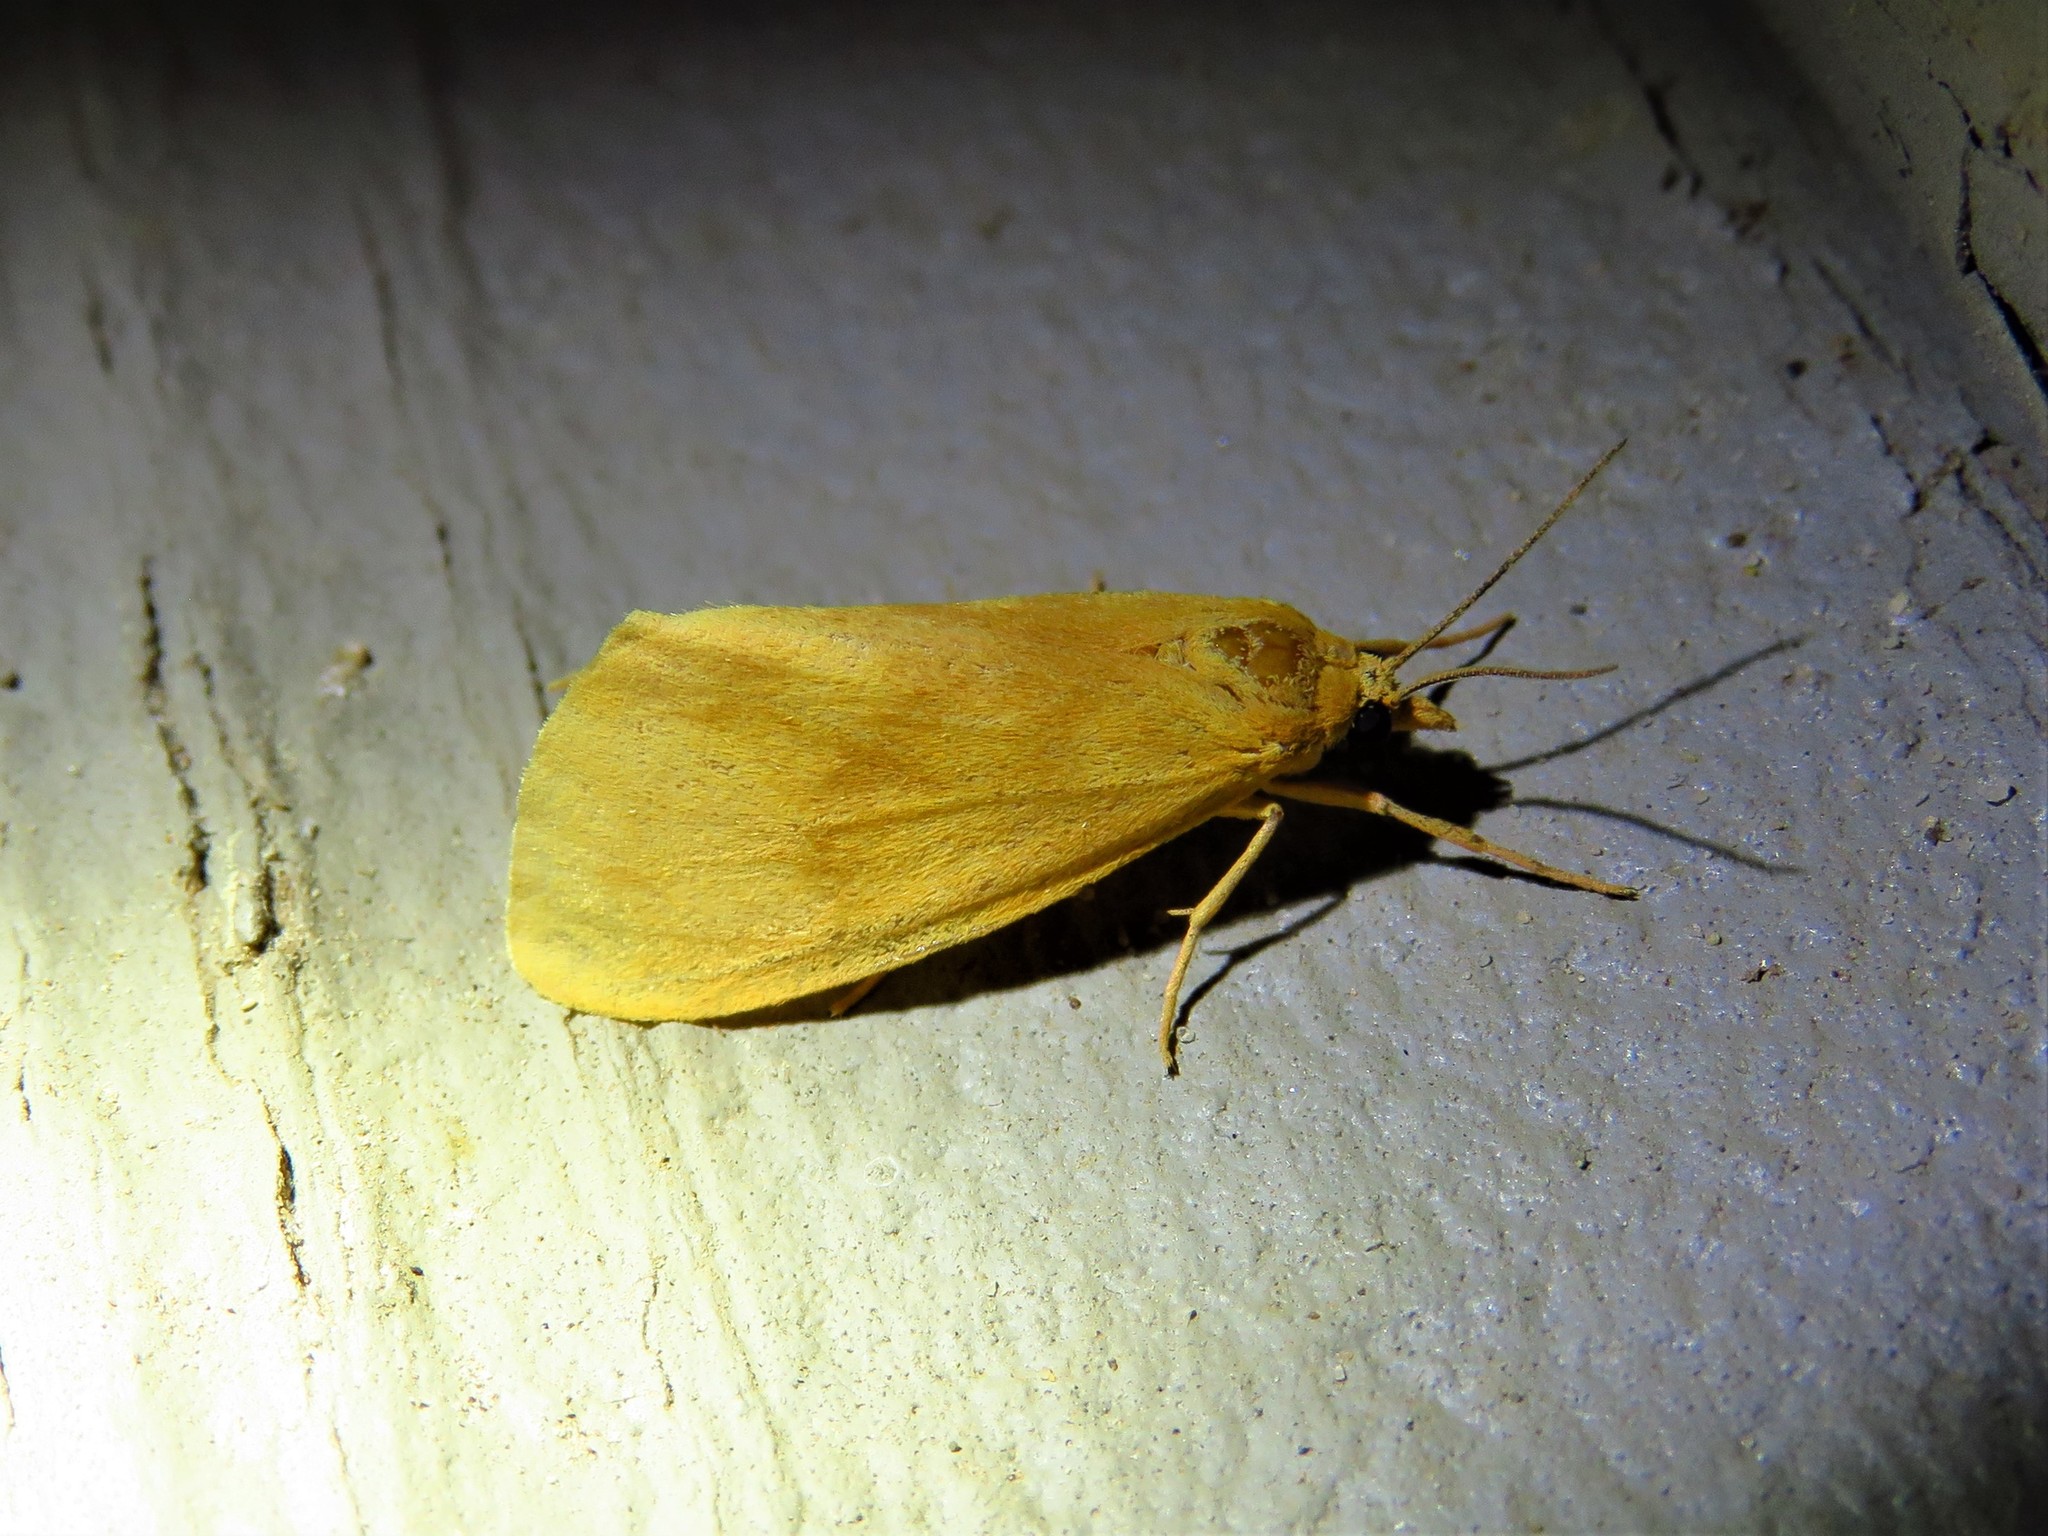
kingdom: Animalia
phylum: Arthropoda
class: Insecta
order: Lepidoptera
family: Erebidae
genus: Virbia
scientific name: Virbia aurantiaca
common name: Orange virbia moth
